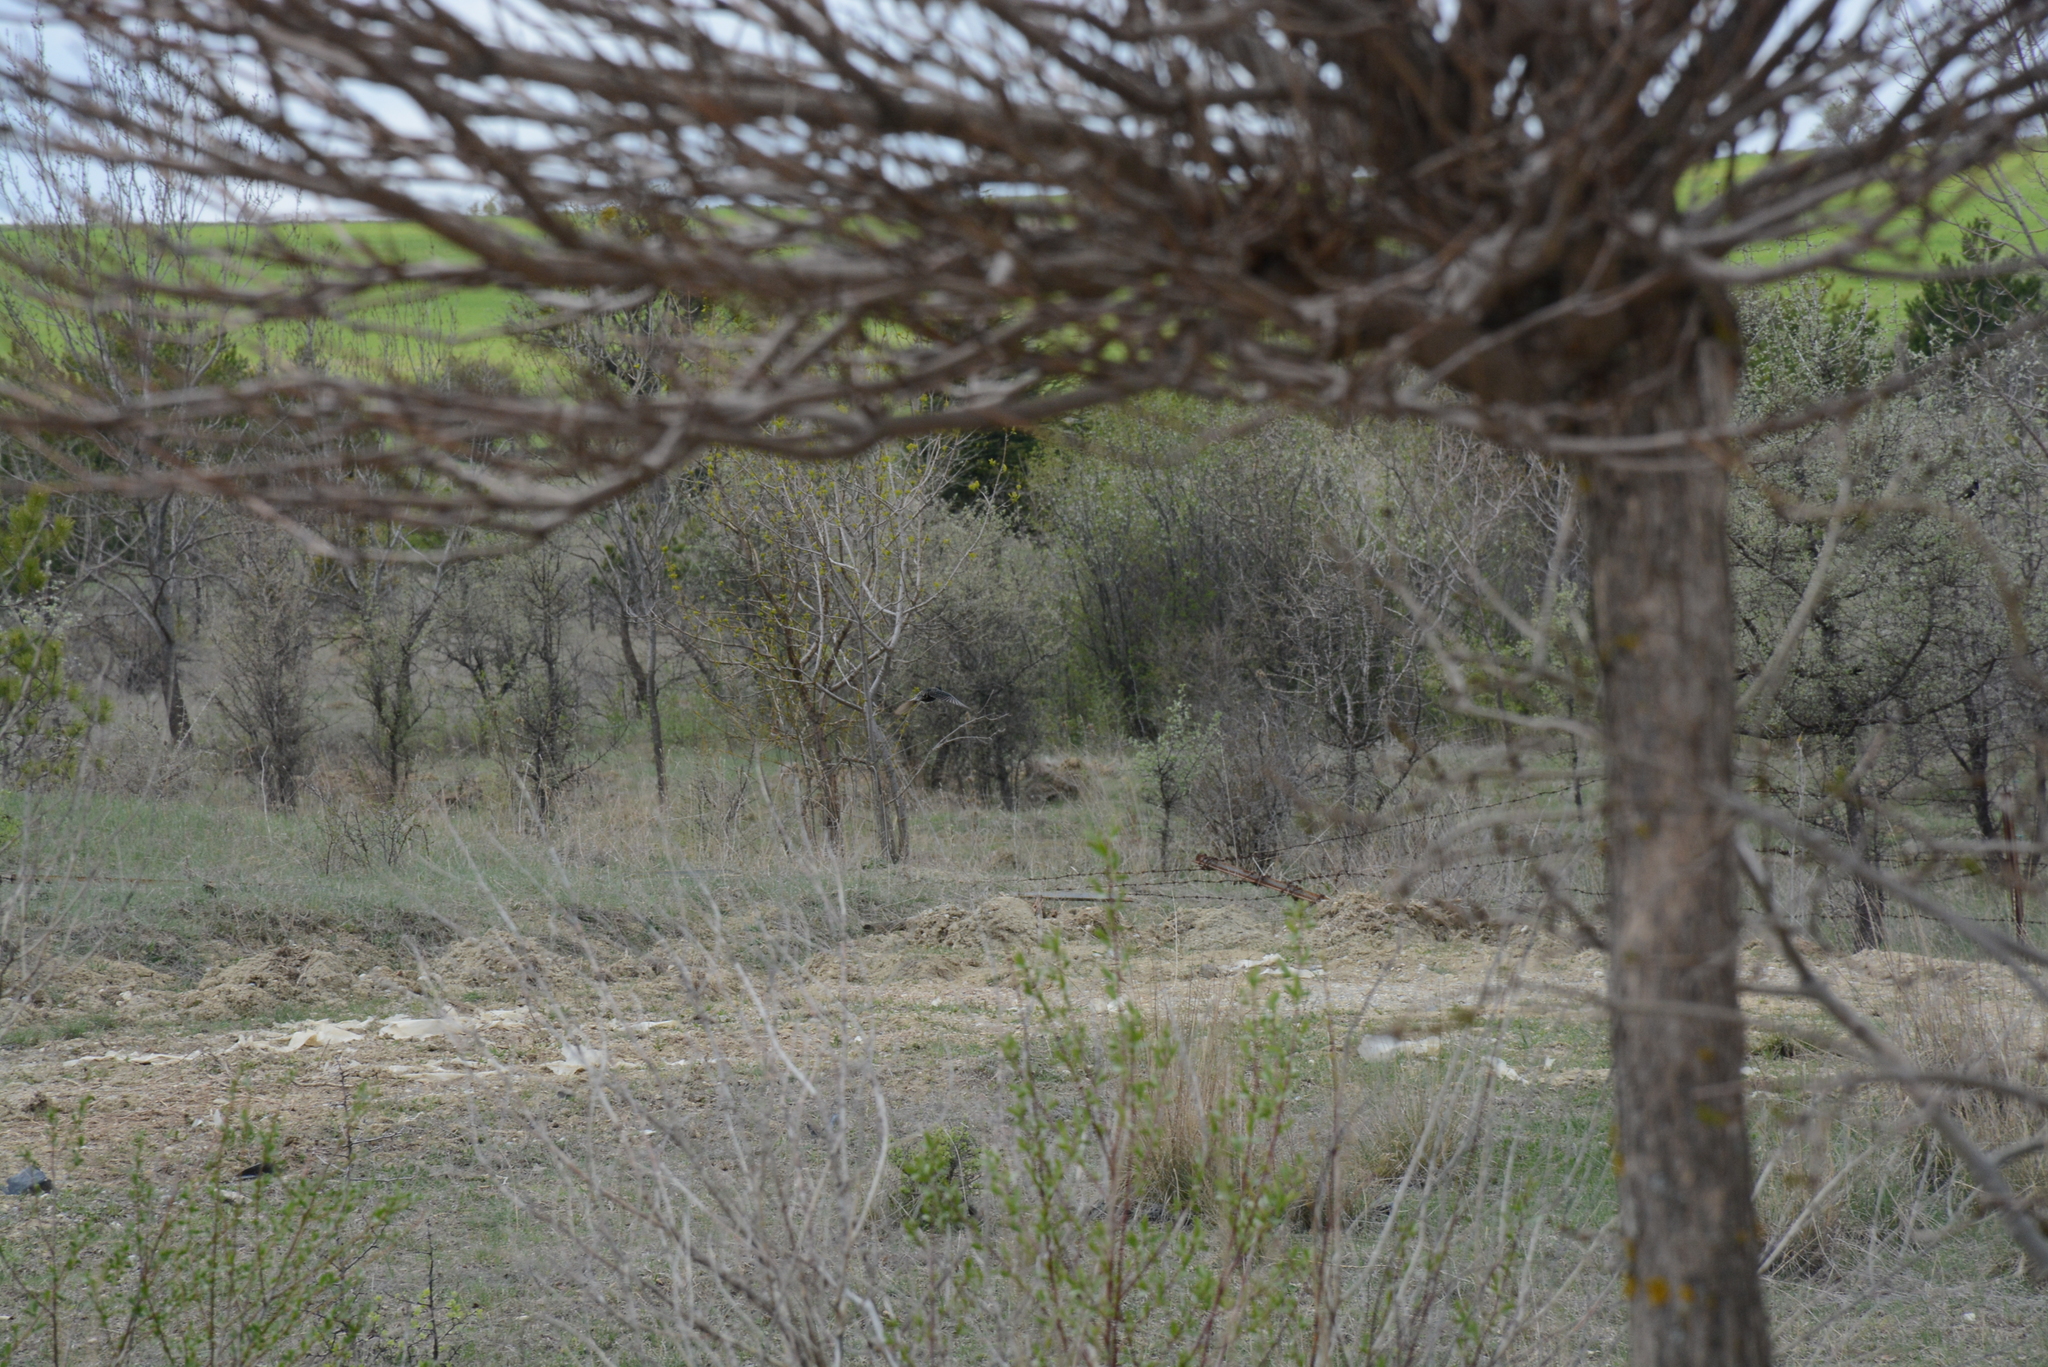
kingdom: Animalia
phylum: Chordata
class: Aves
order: Passeriformes
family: Sturnidae
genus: Sturnus
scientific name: Sturnus vulgaris
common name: Common starling
